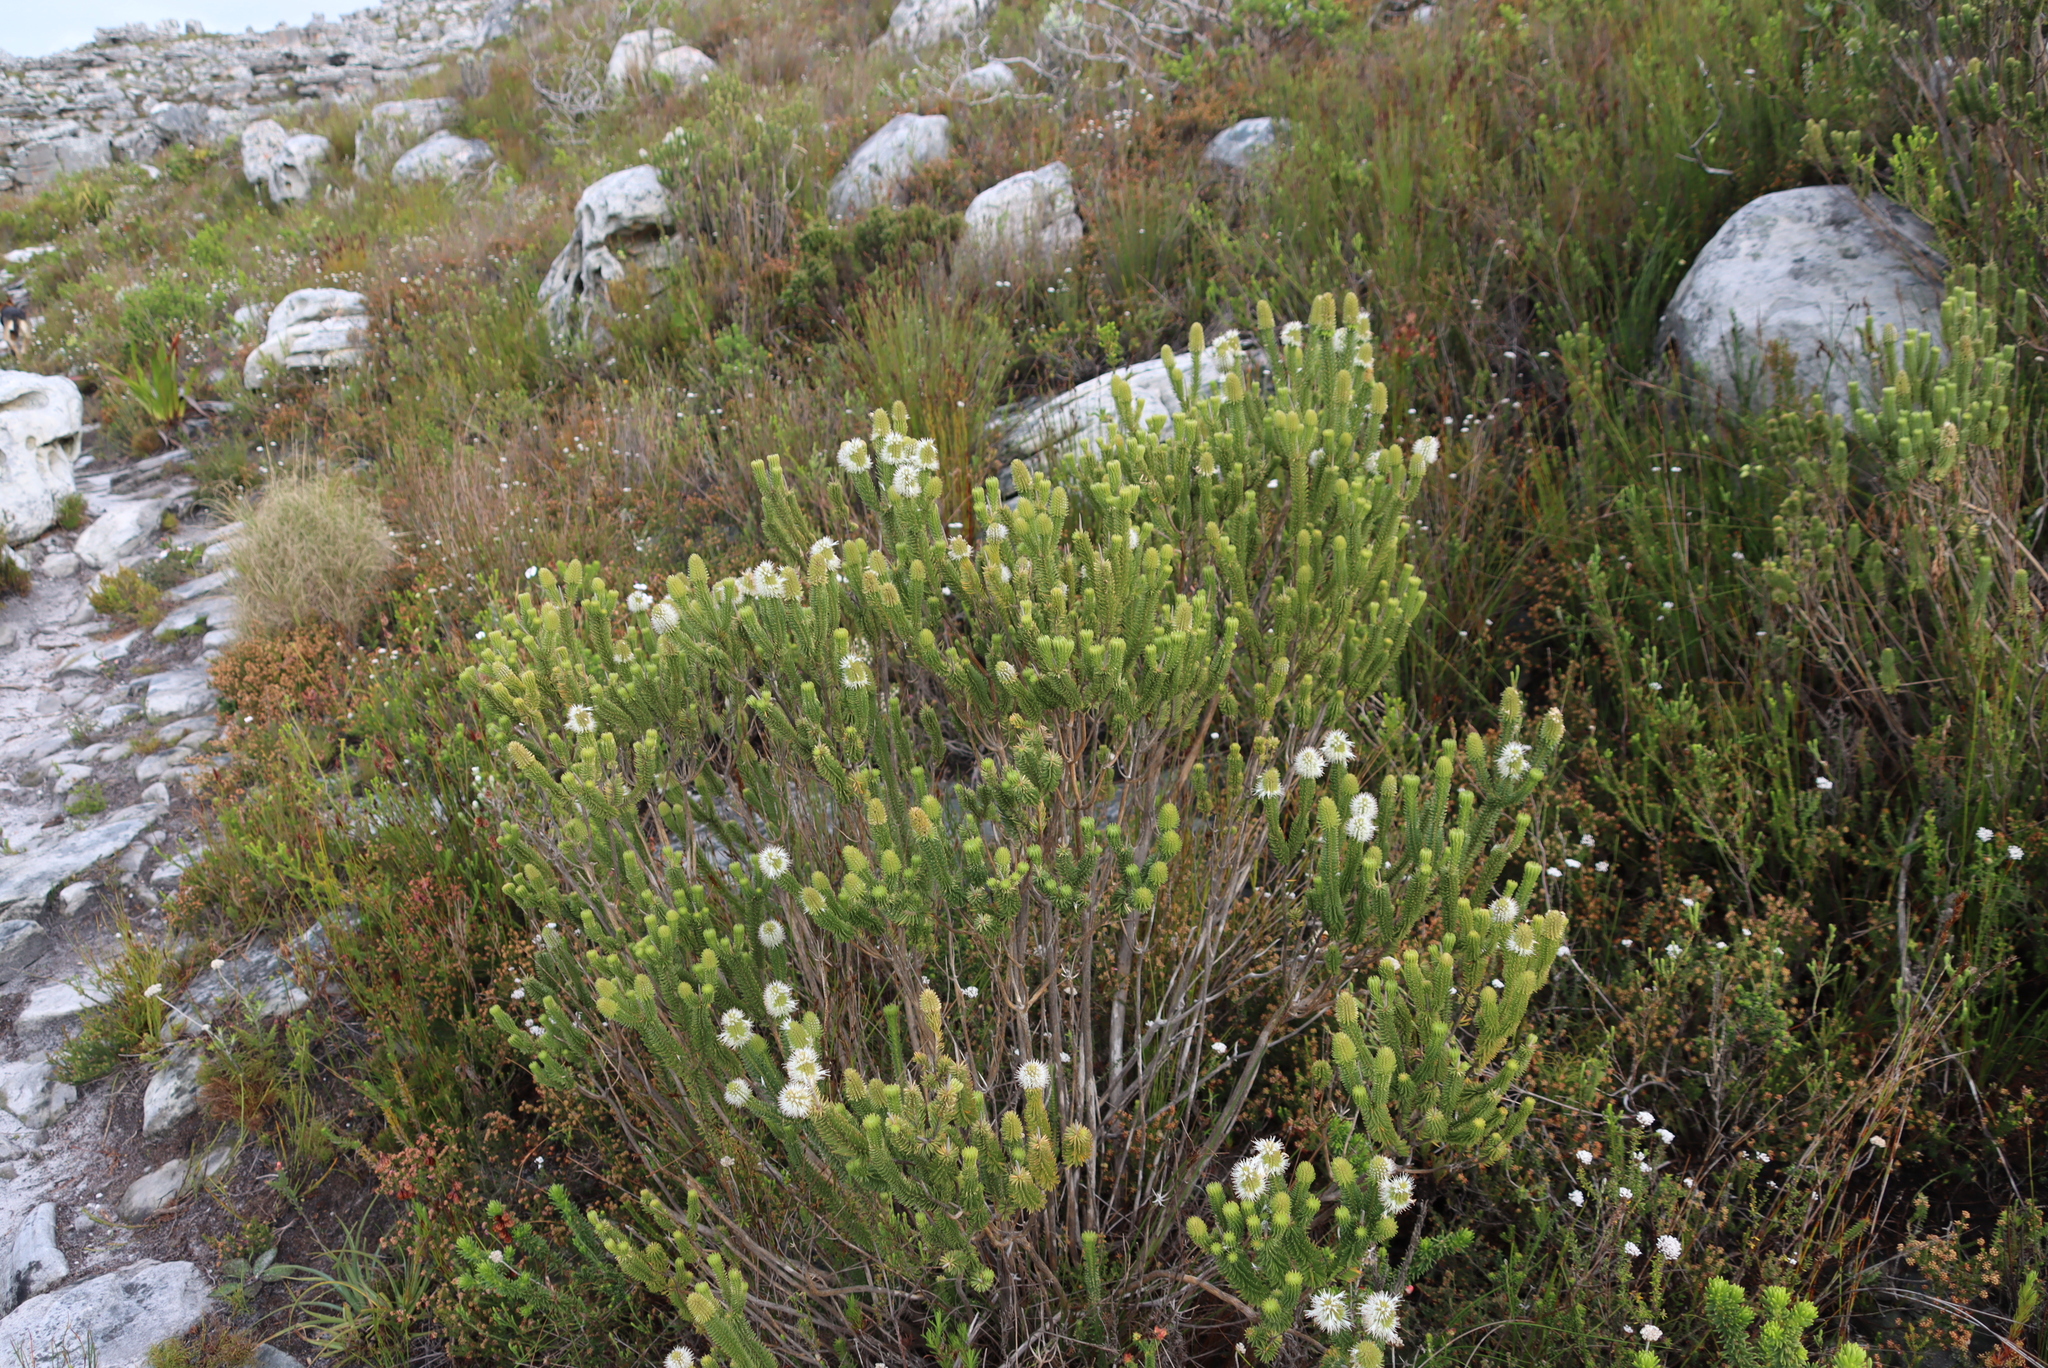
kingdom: Plantae
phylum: Tracheophyta
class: Magnoliopsida
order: Lamiales
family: Stilbaceae
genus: Stilbe
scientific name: Stilbe vestita
